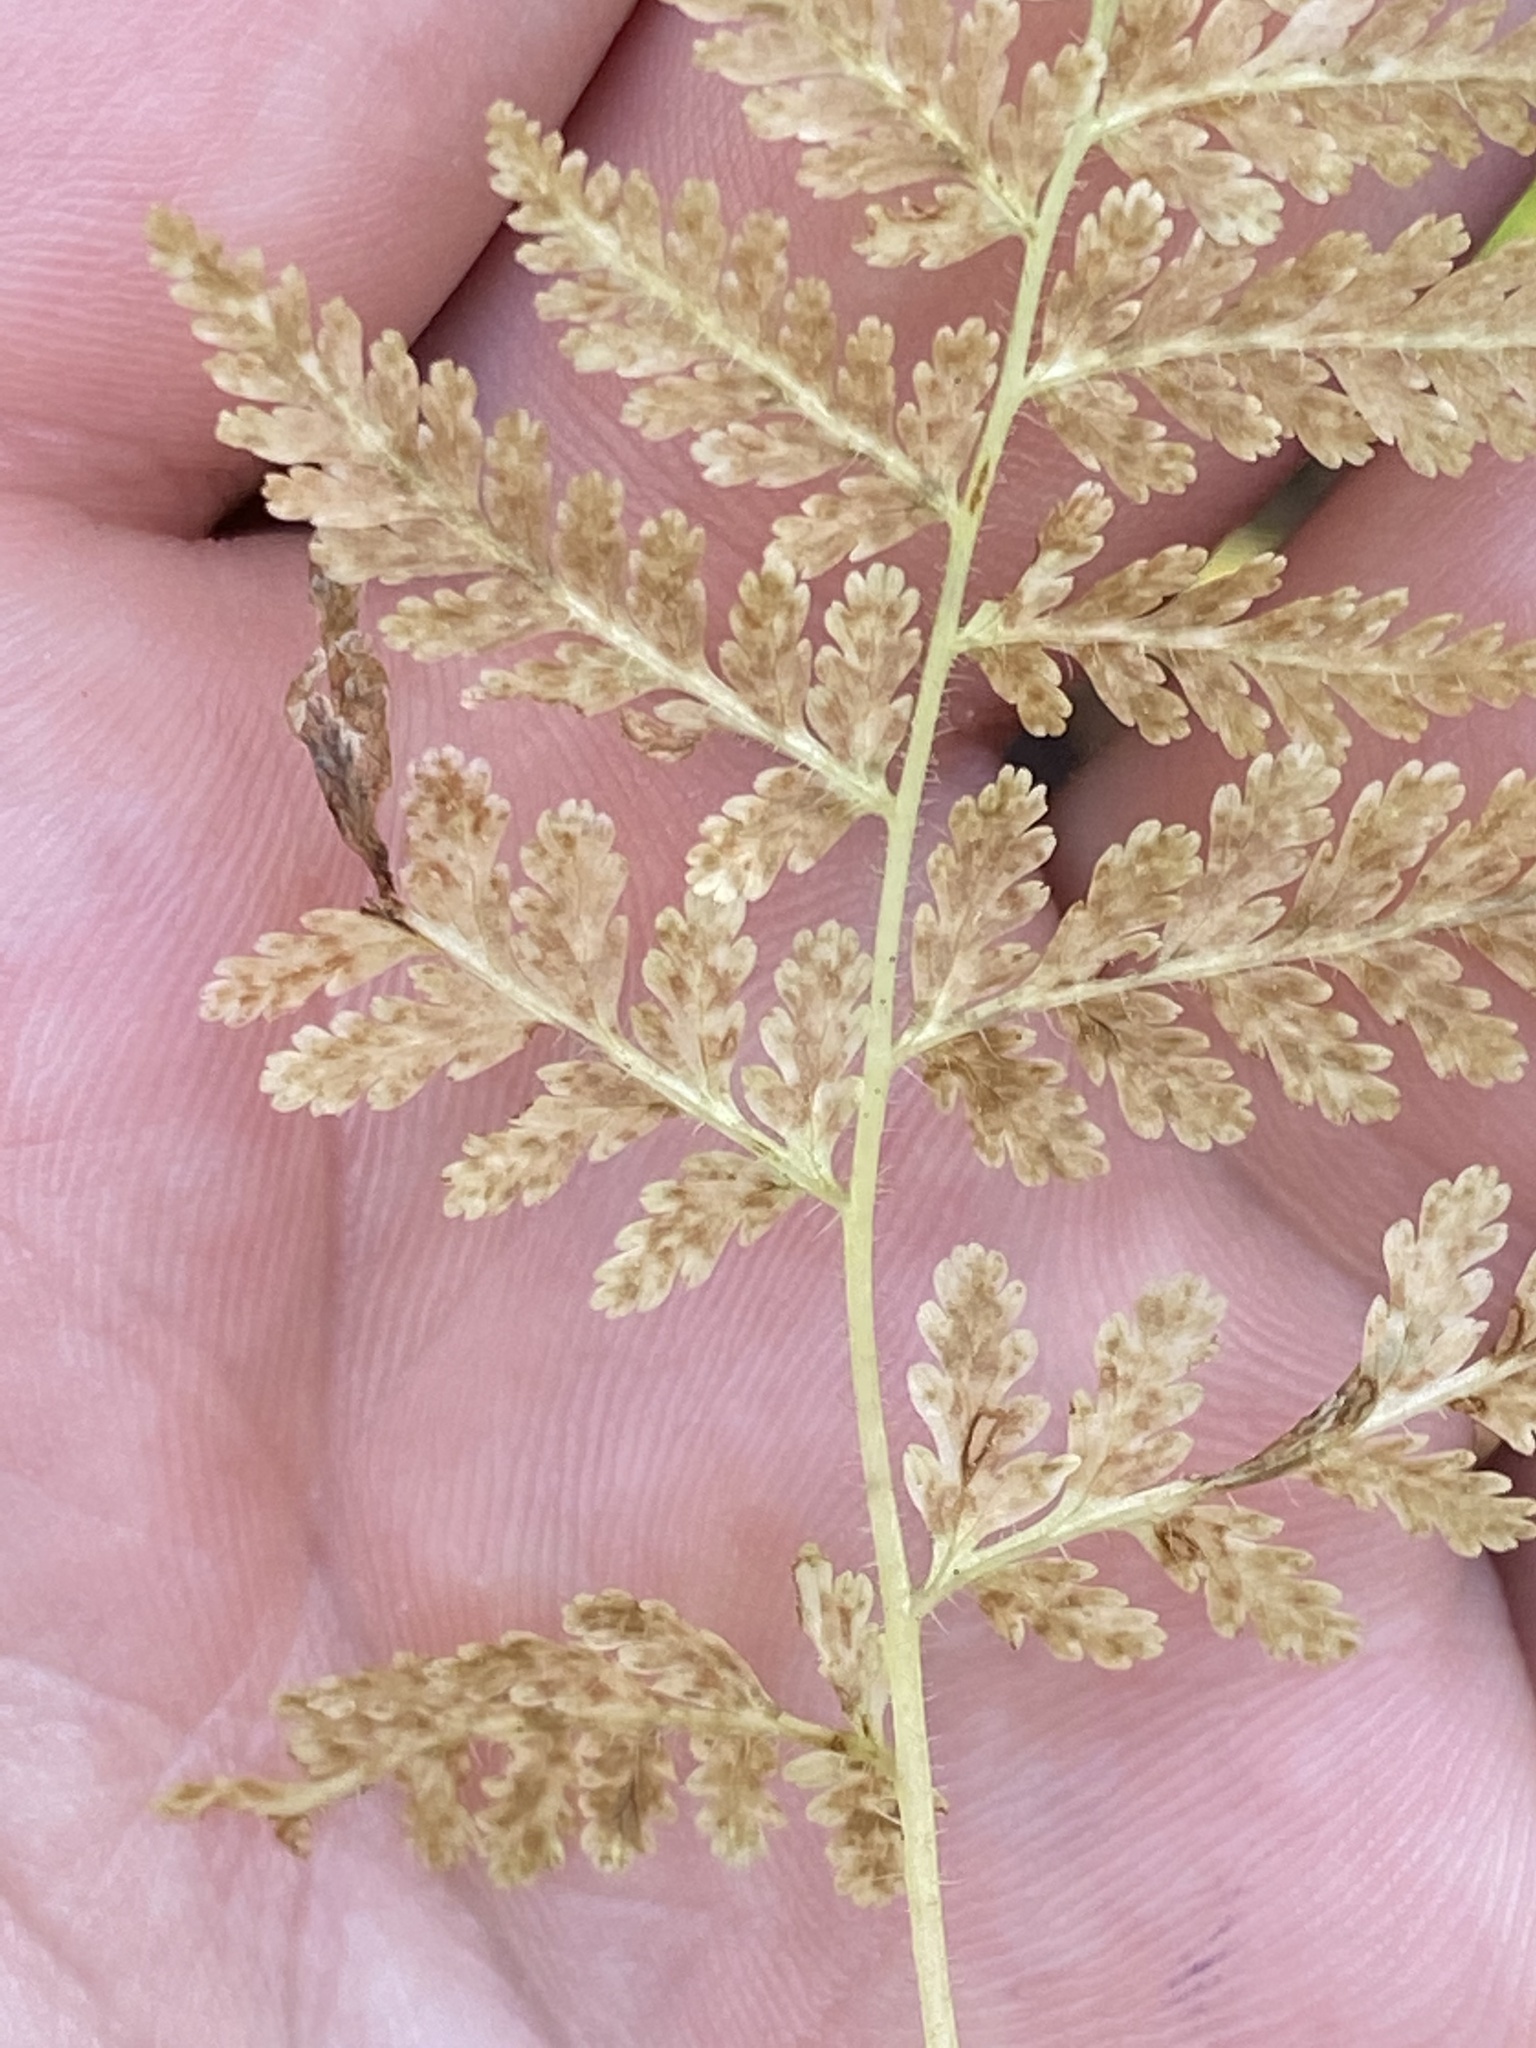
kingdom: Plantae
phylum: Tracheophyta
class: Polypodiopsida
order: Polypodiales
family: Dennstaedtiaceae
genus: Sitobolium
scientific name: Sitobolium punctilobum
